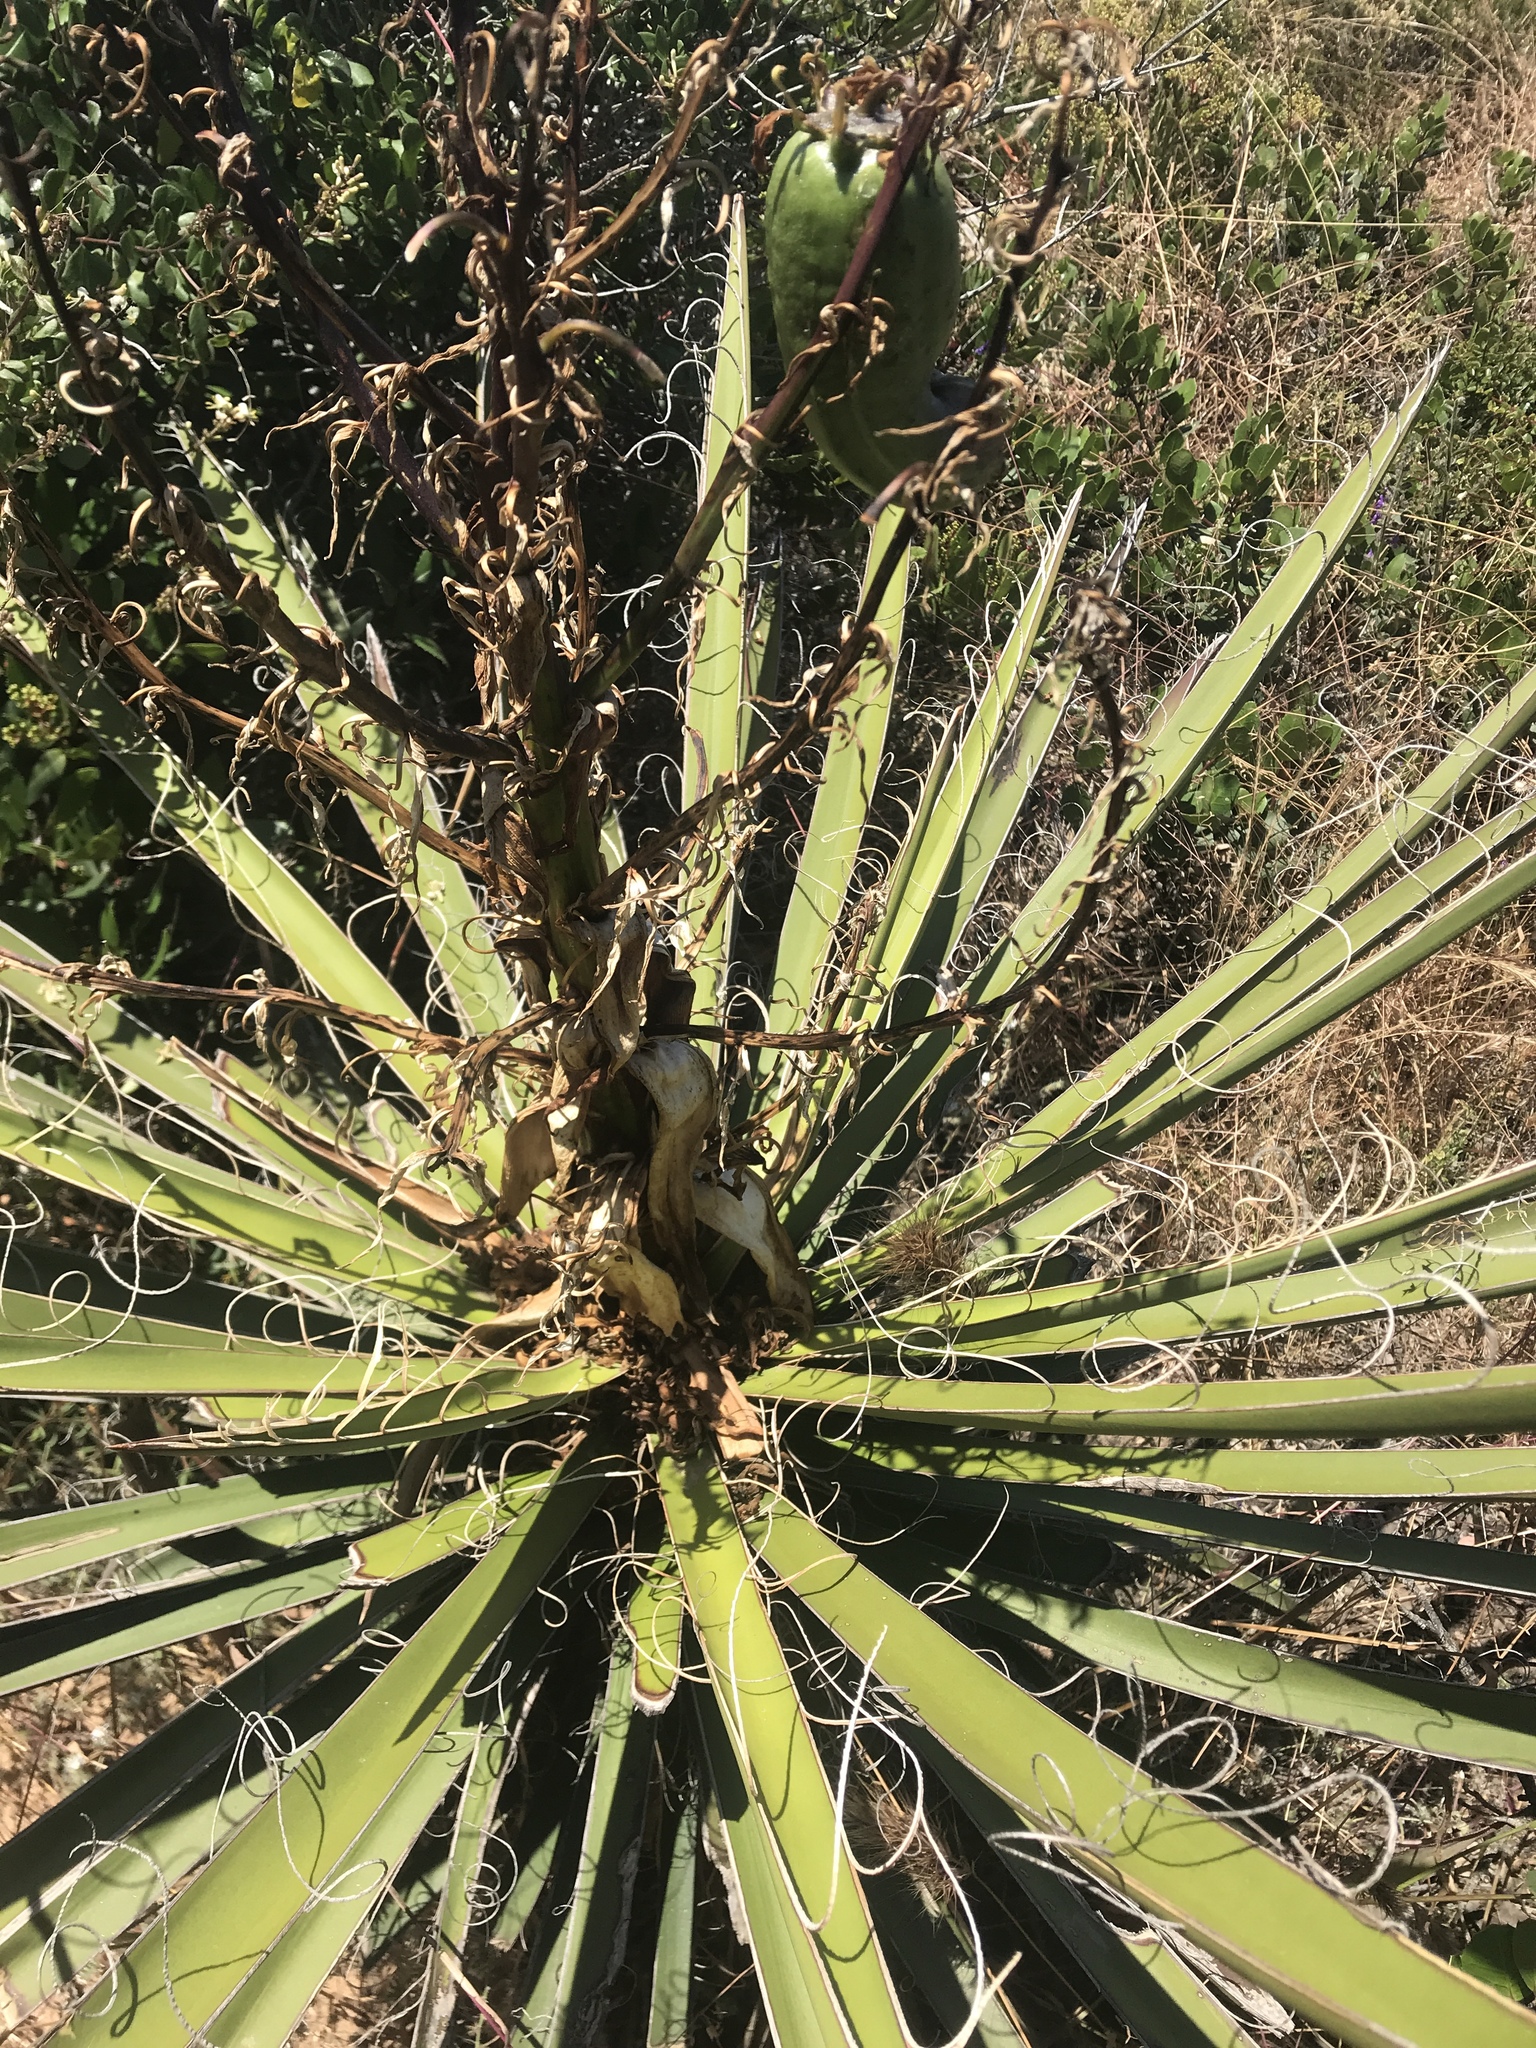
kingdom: Plantae
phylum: Tracheophyta
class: Liliopsida
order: Asparagales
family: Asparagaceae
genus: Yucca
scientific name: Yucca schidigera
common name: Mojave yucca
